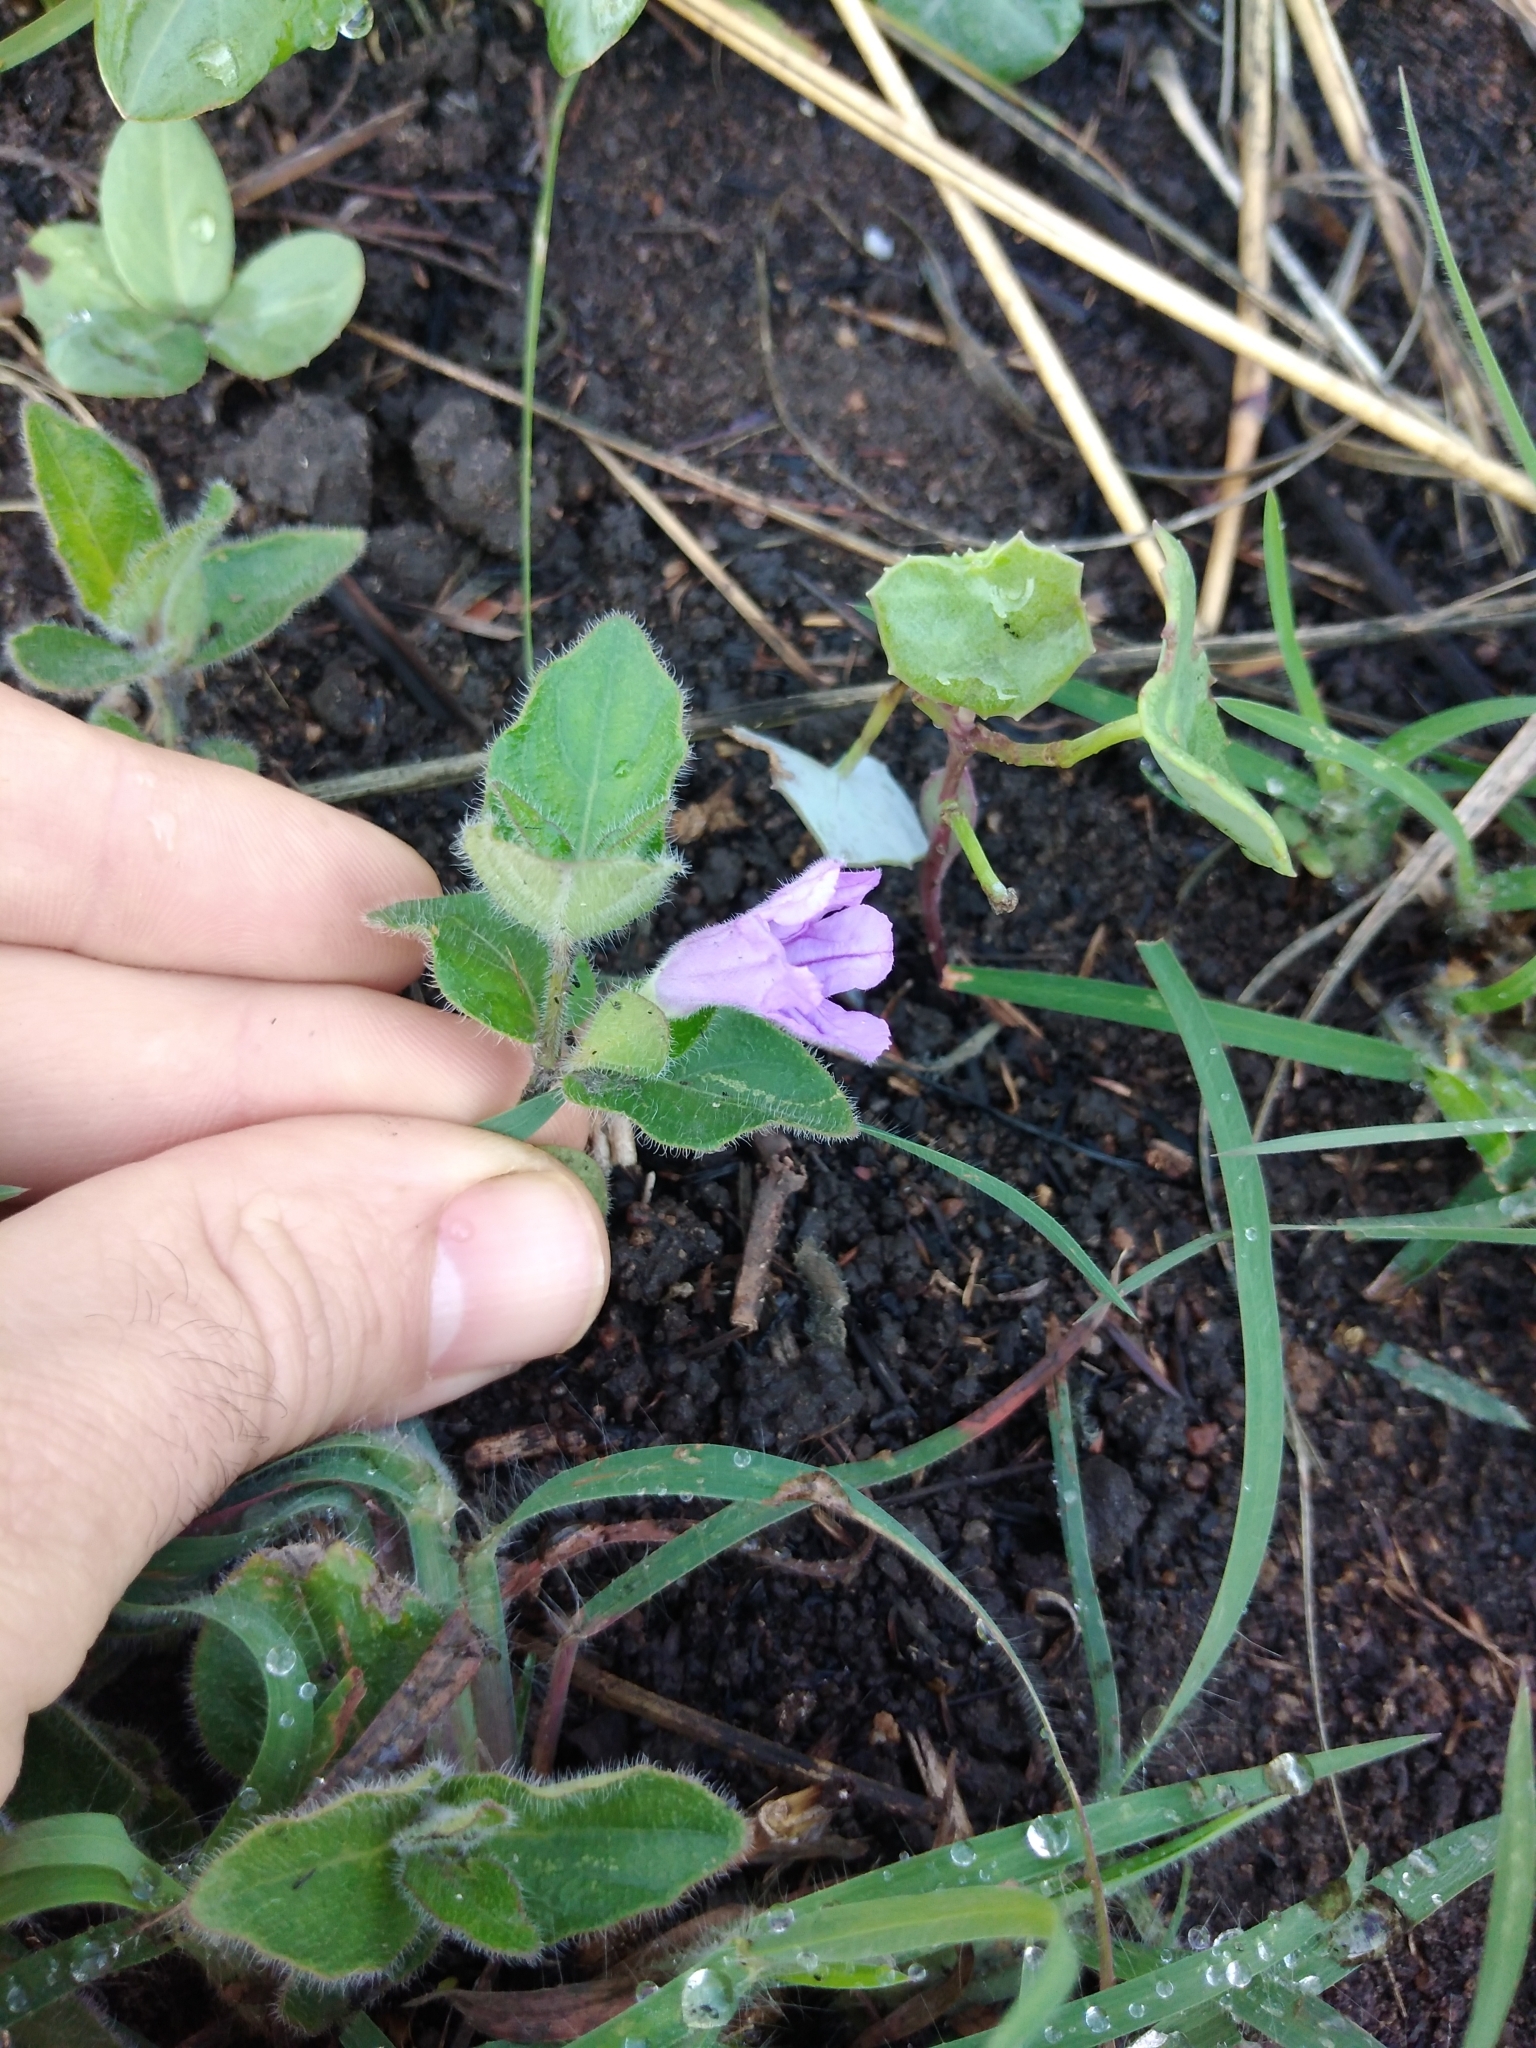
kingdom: Plantae
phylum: Tracheophyta
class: Magnoliopsida
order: Lamiales
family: Acanthaceae
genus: Ruellia
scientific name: Ruellia cordata
